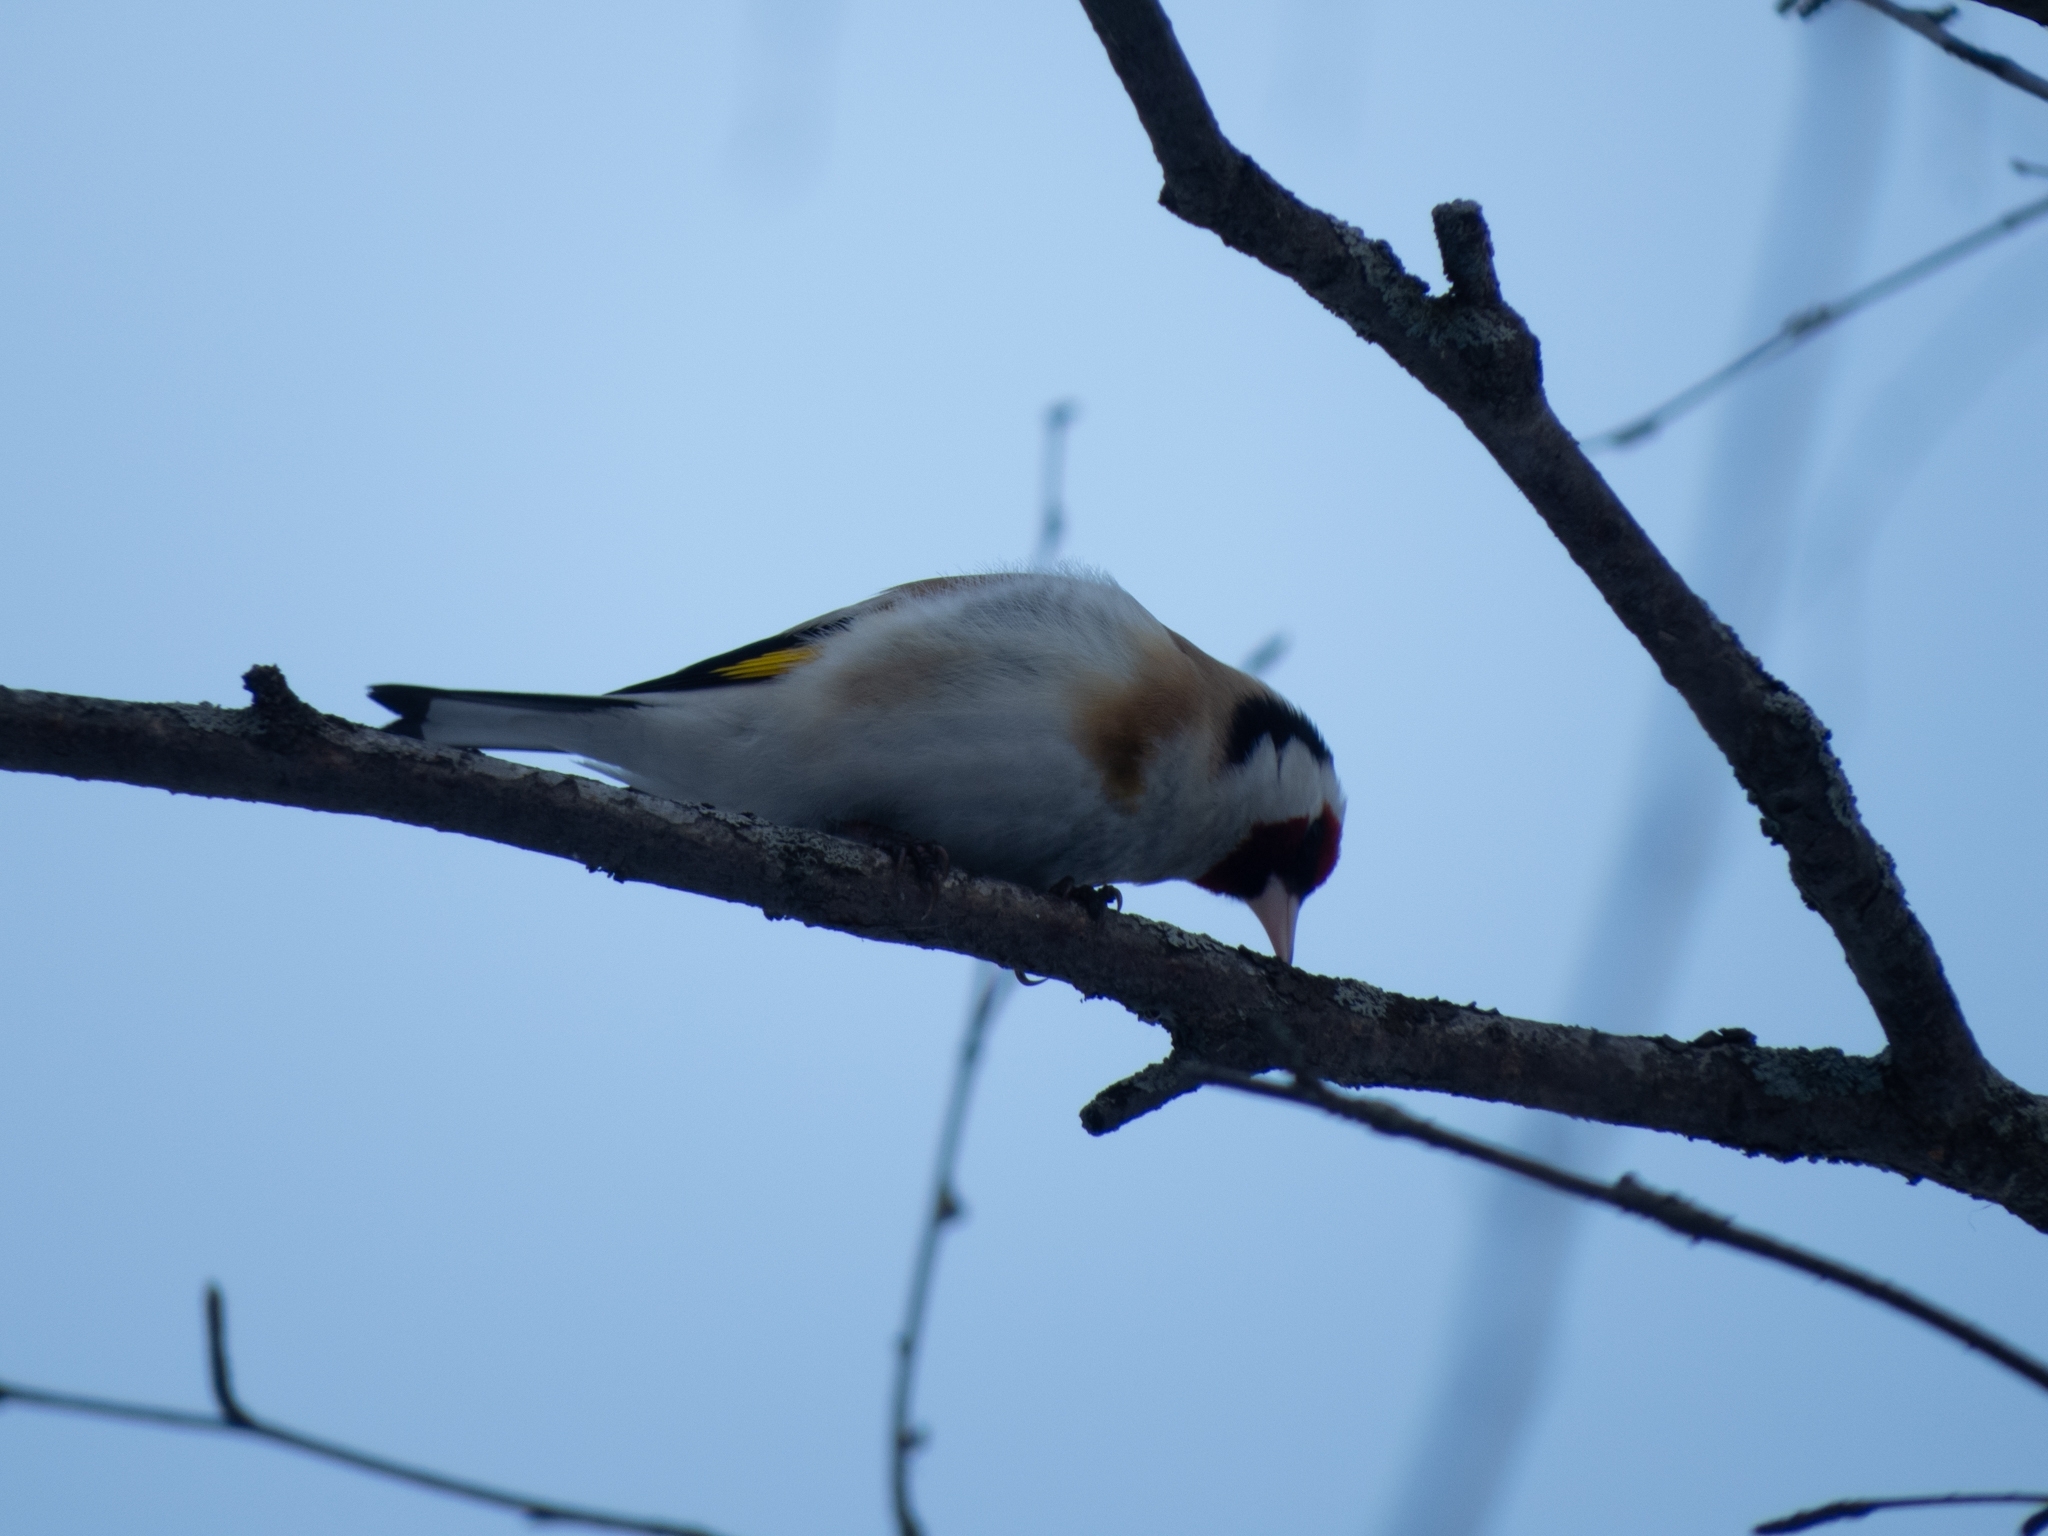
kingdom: Animalia
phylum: Chordata
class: Aves
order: Passeriformes
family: Fringillidae
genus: Carduelis
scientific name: Carduelis carduelis
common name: European goldfinch
